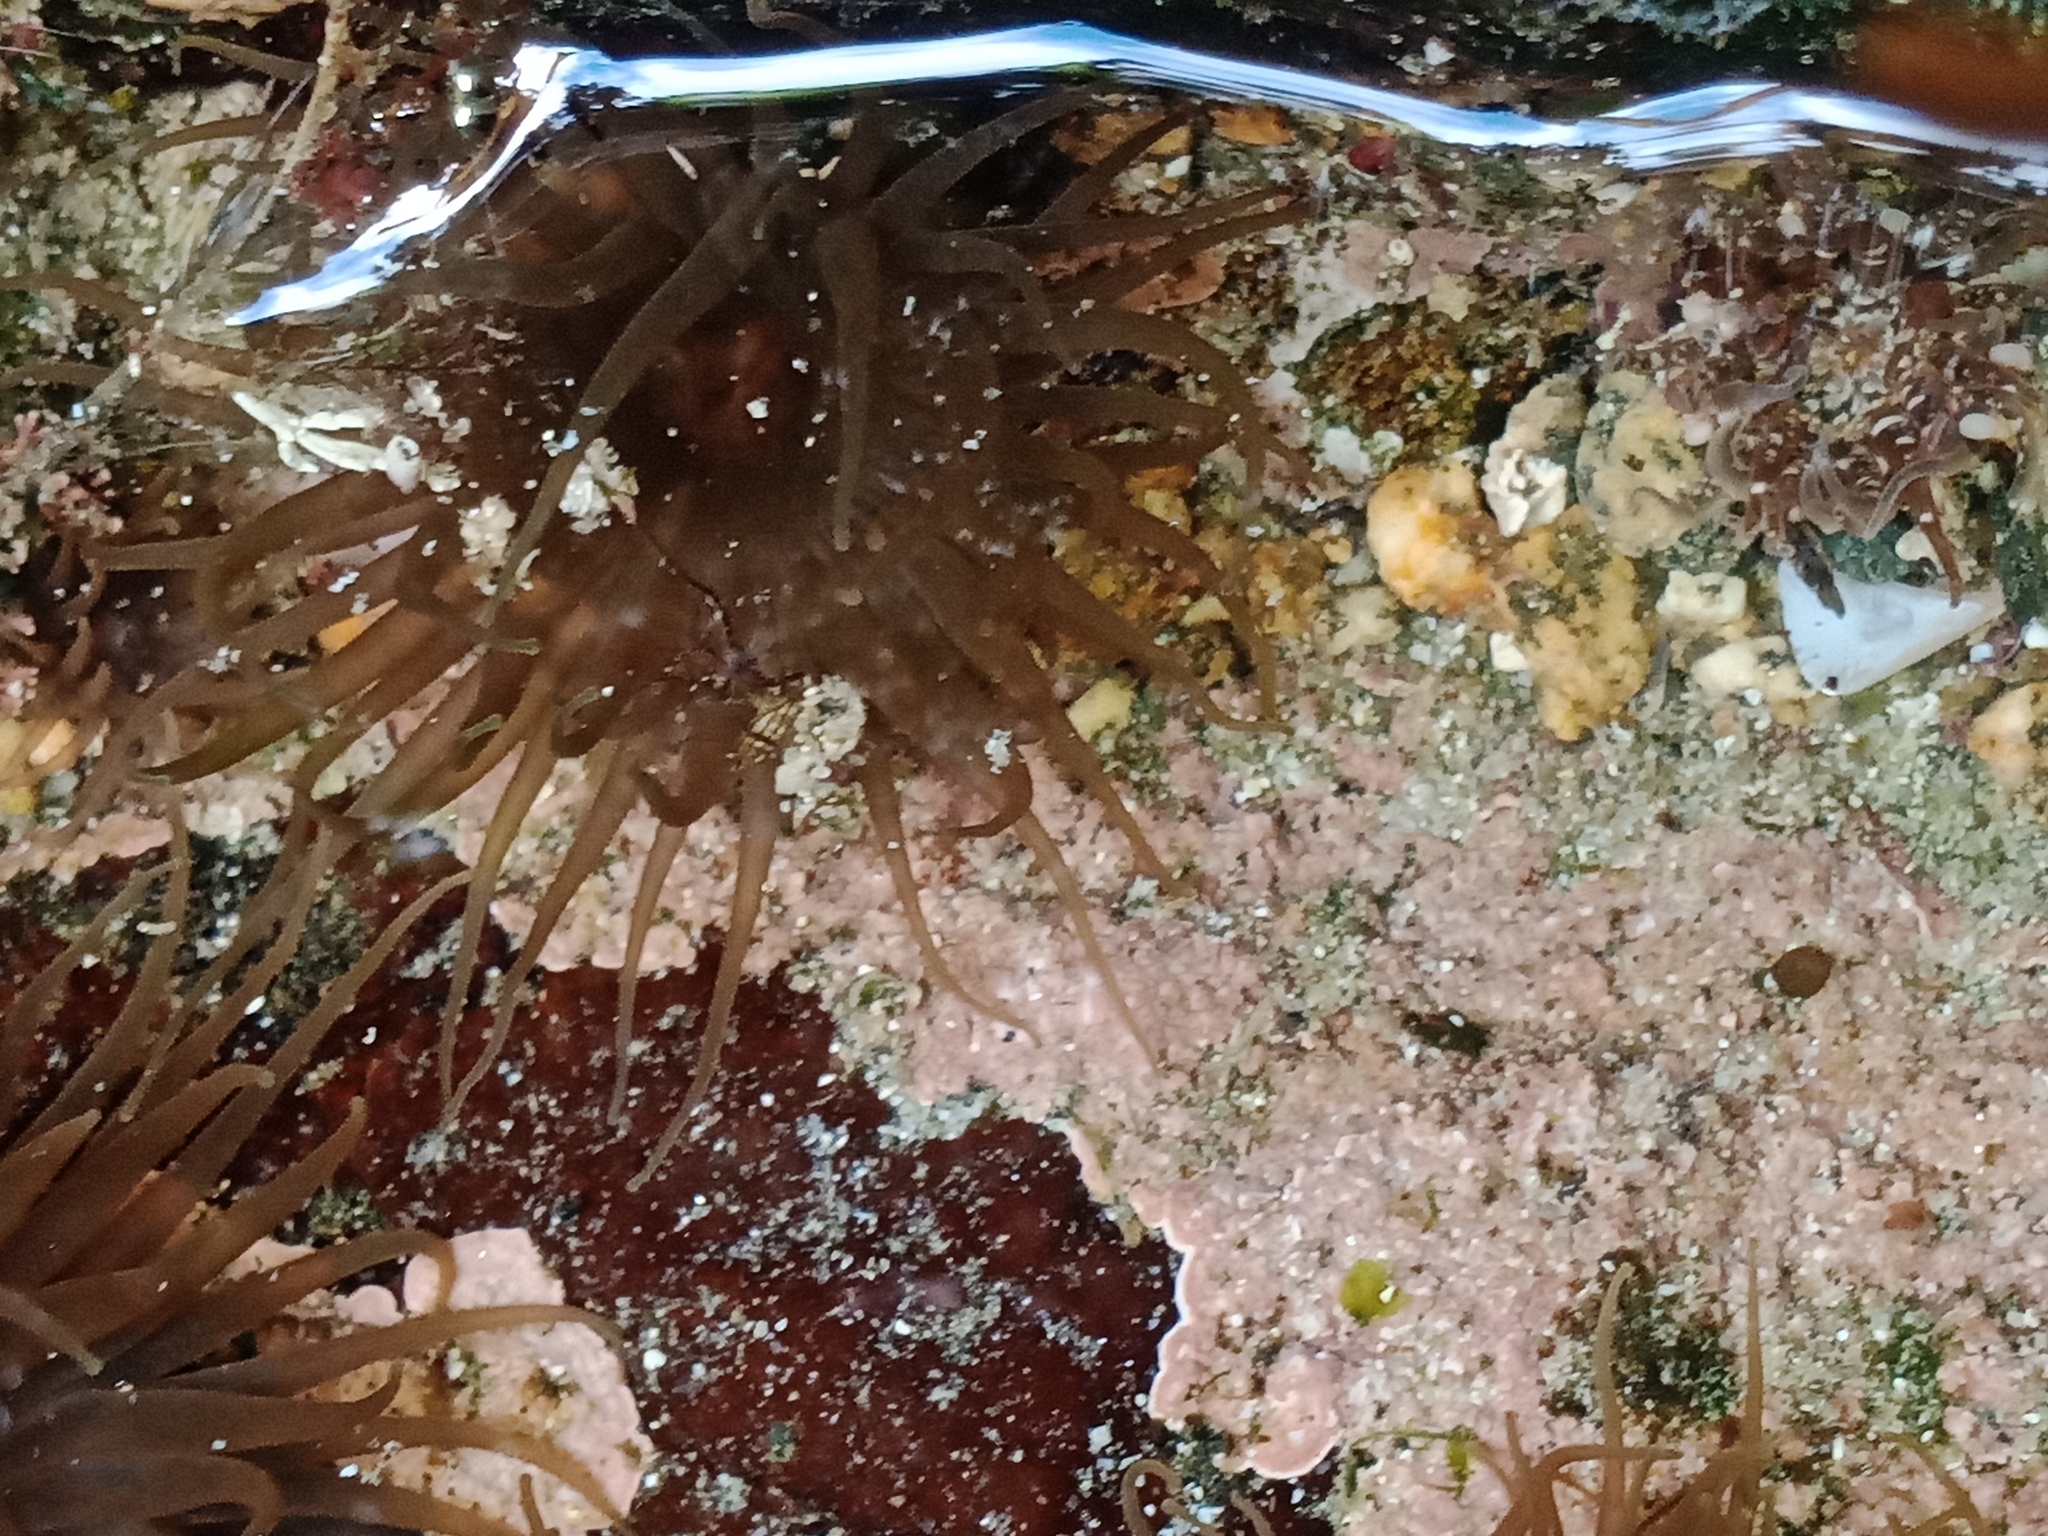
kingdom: Animalia
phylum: Cnidaria
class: Anthozoa
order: Actiniaria
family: Actiniidae
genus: Isactinia
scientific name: Isactinia olivacea
